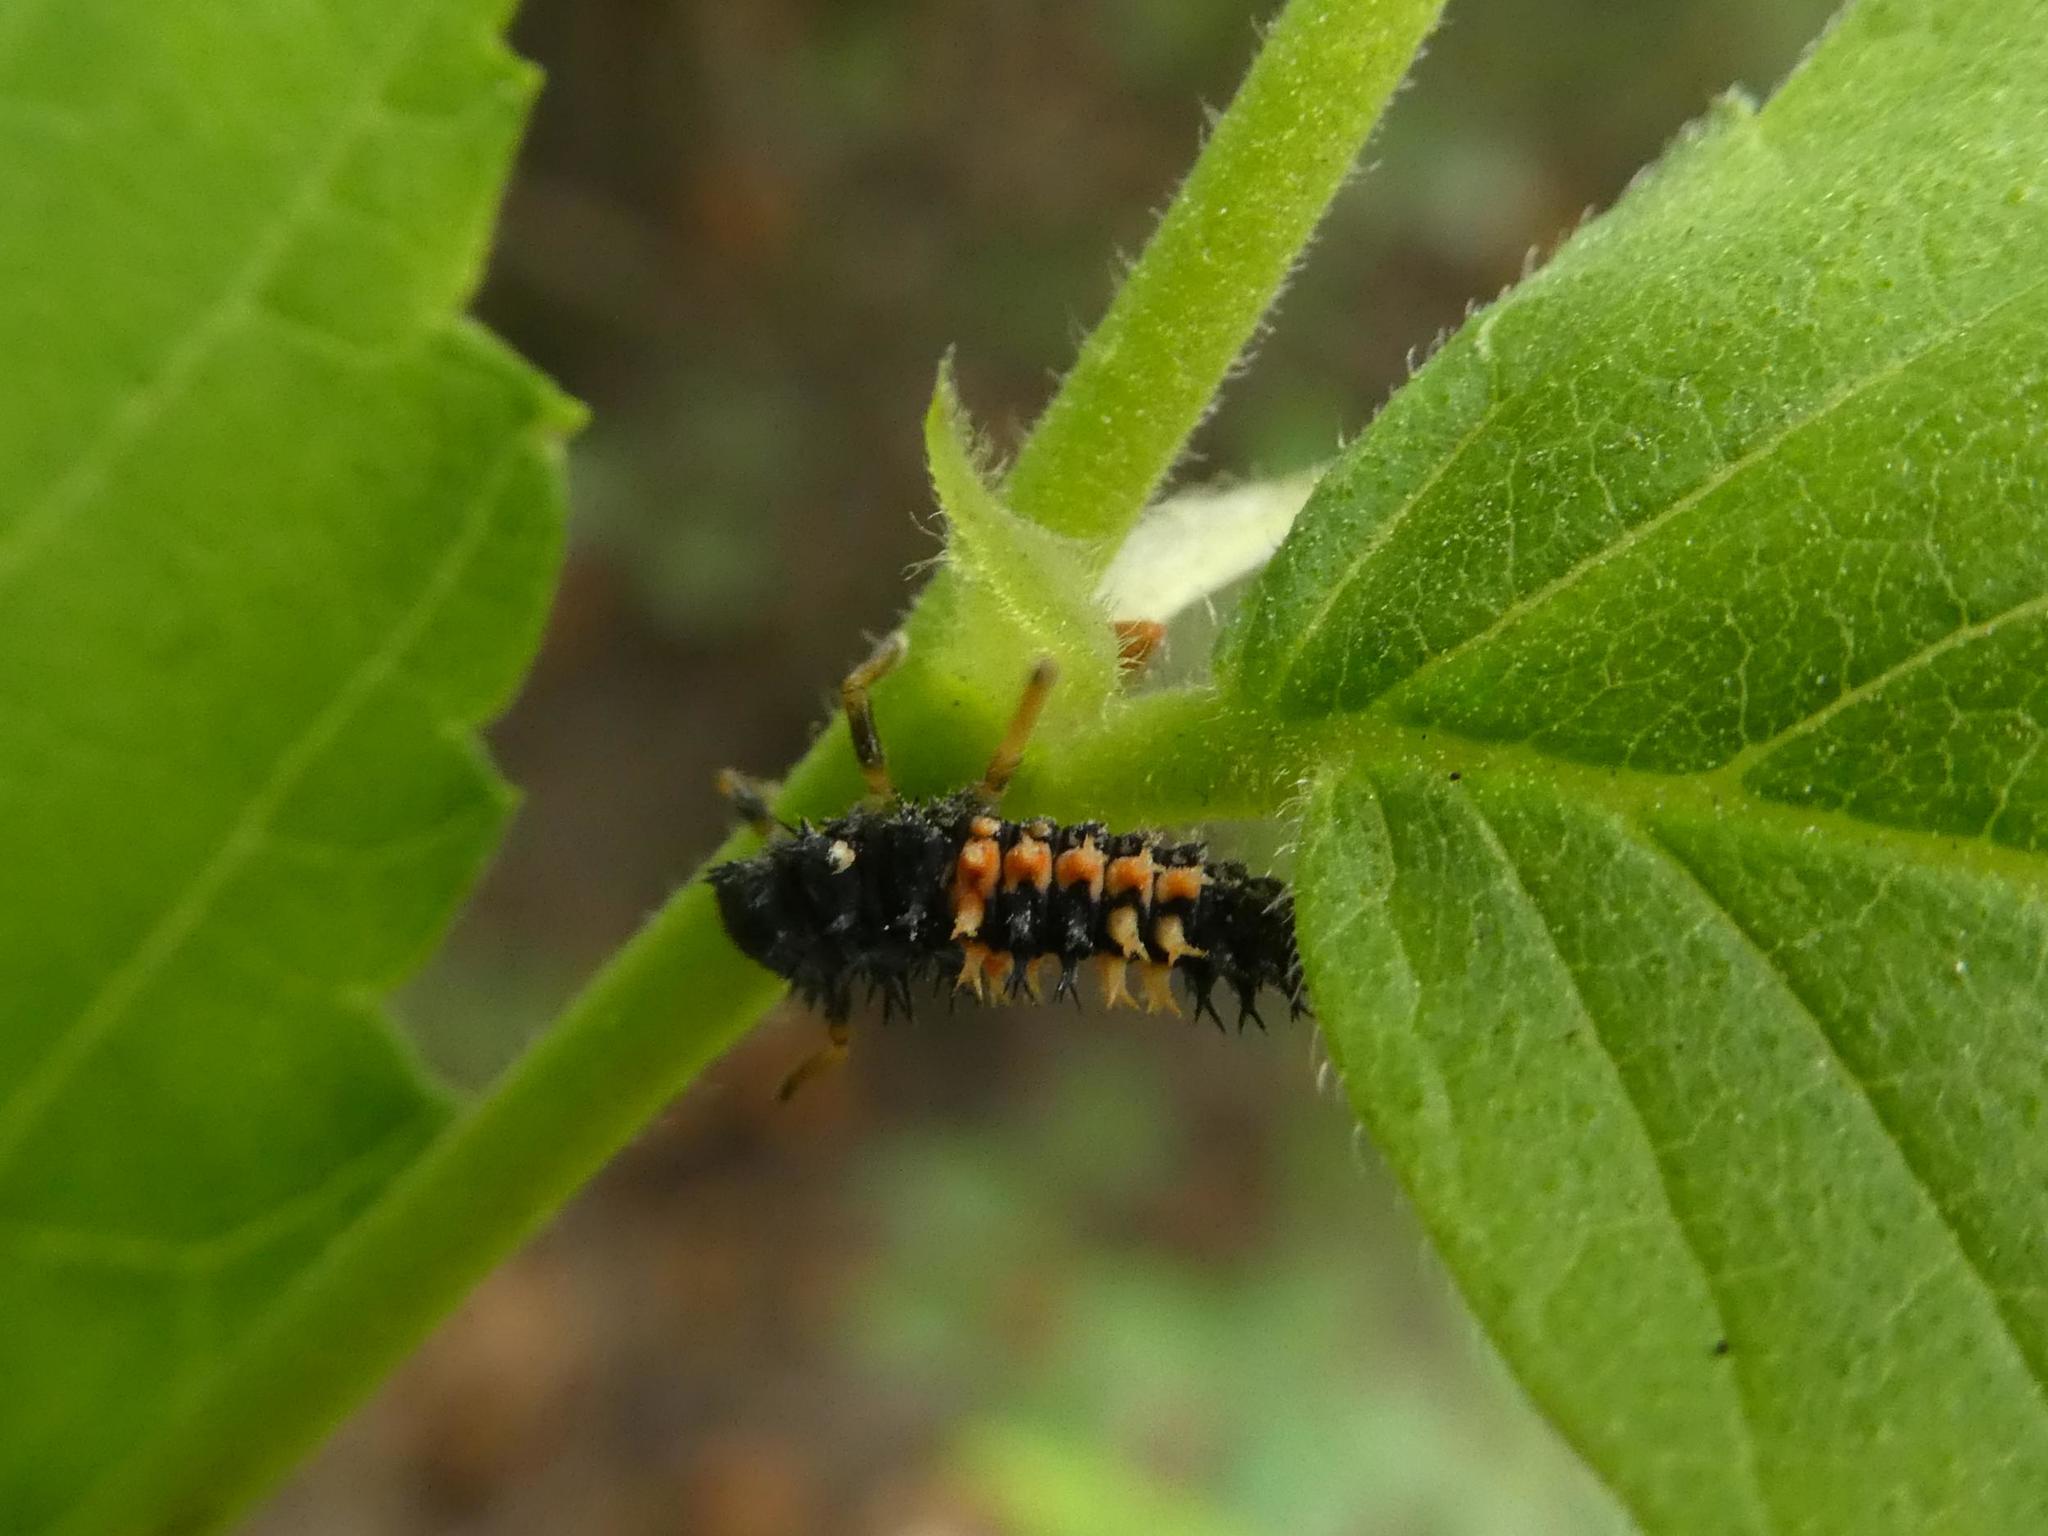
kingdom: Animalia
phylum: Arthropoda
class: Insecta
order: Coleoptera
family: Coccinellidae
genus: Harmonia
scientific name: Harmonia axyridis
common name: Harlequin ladybird
